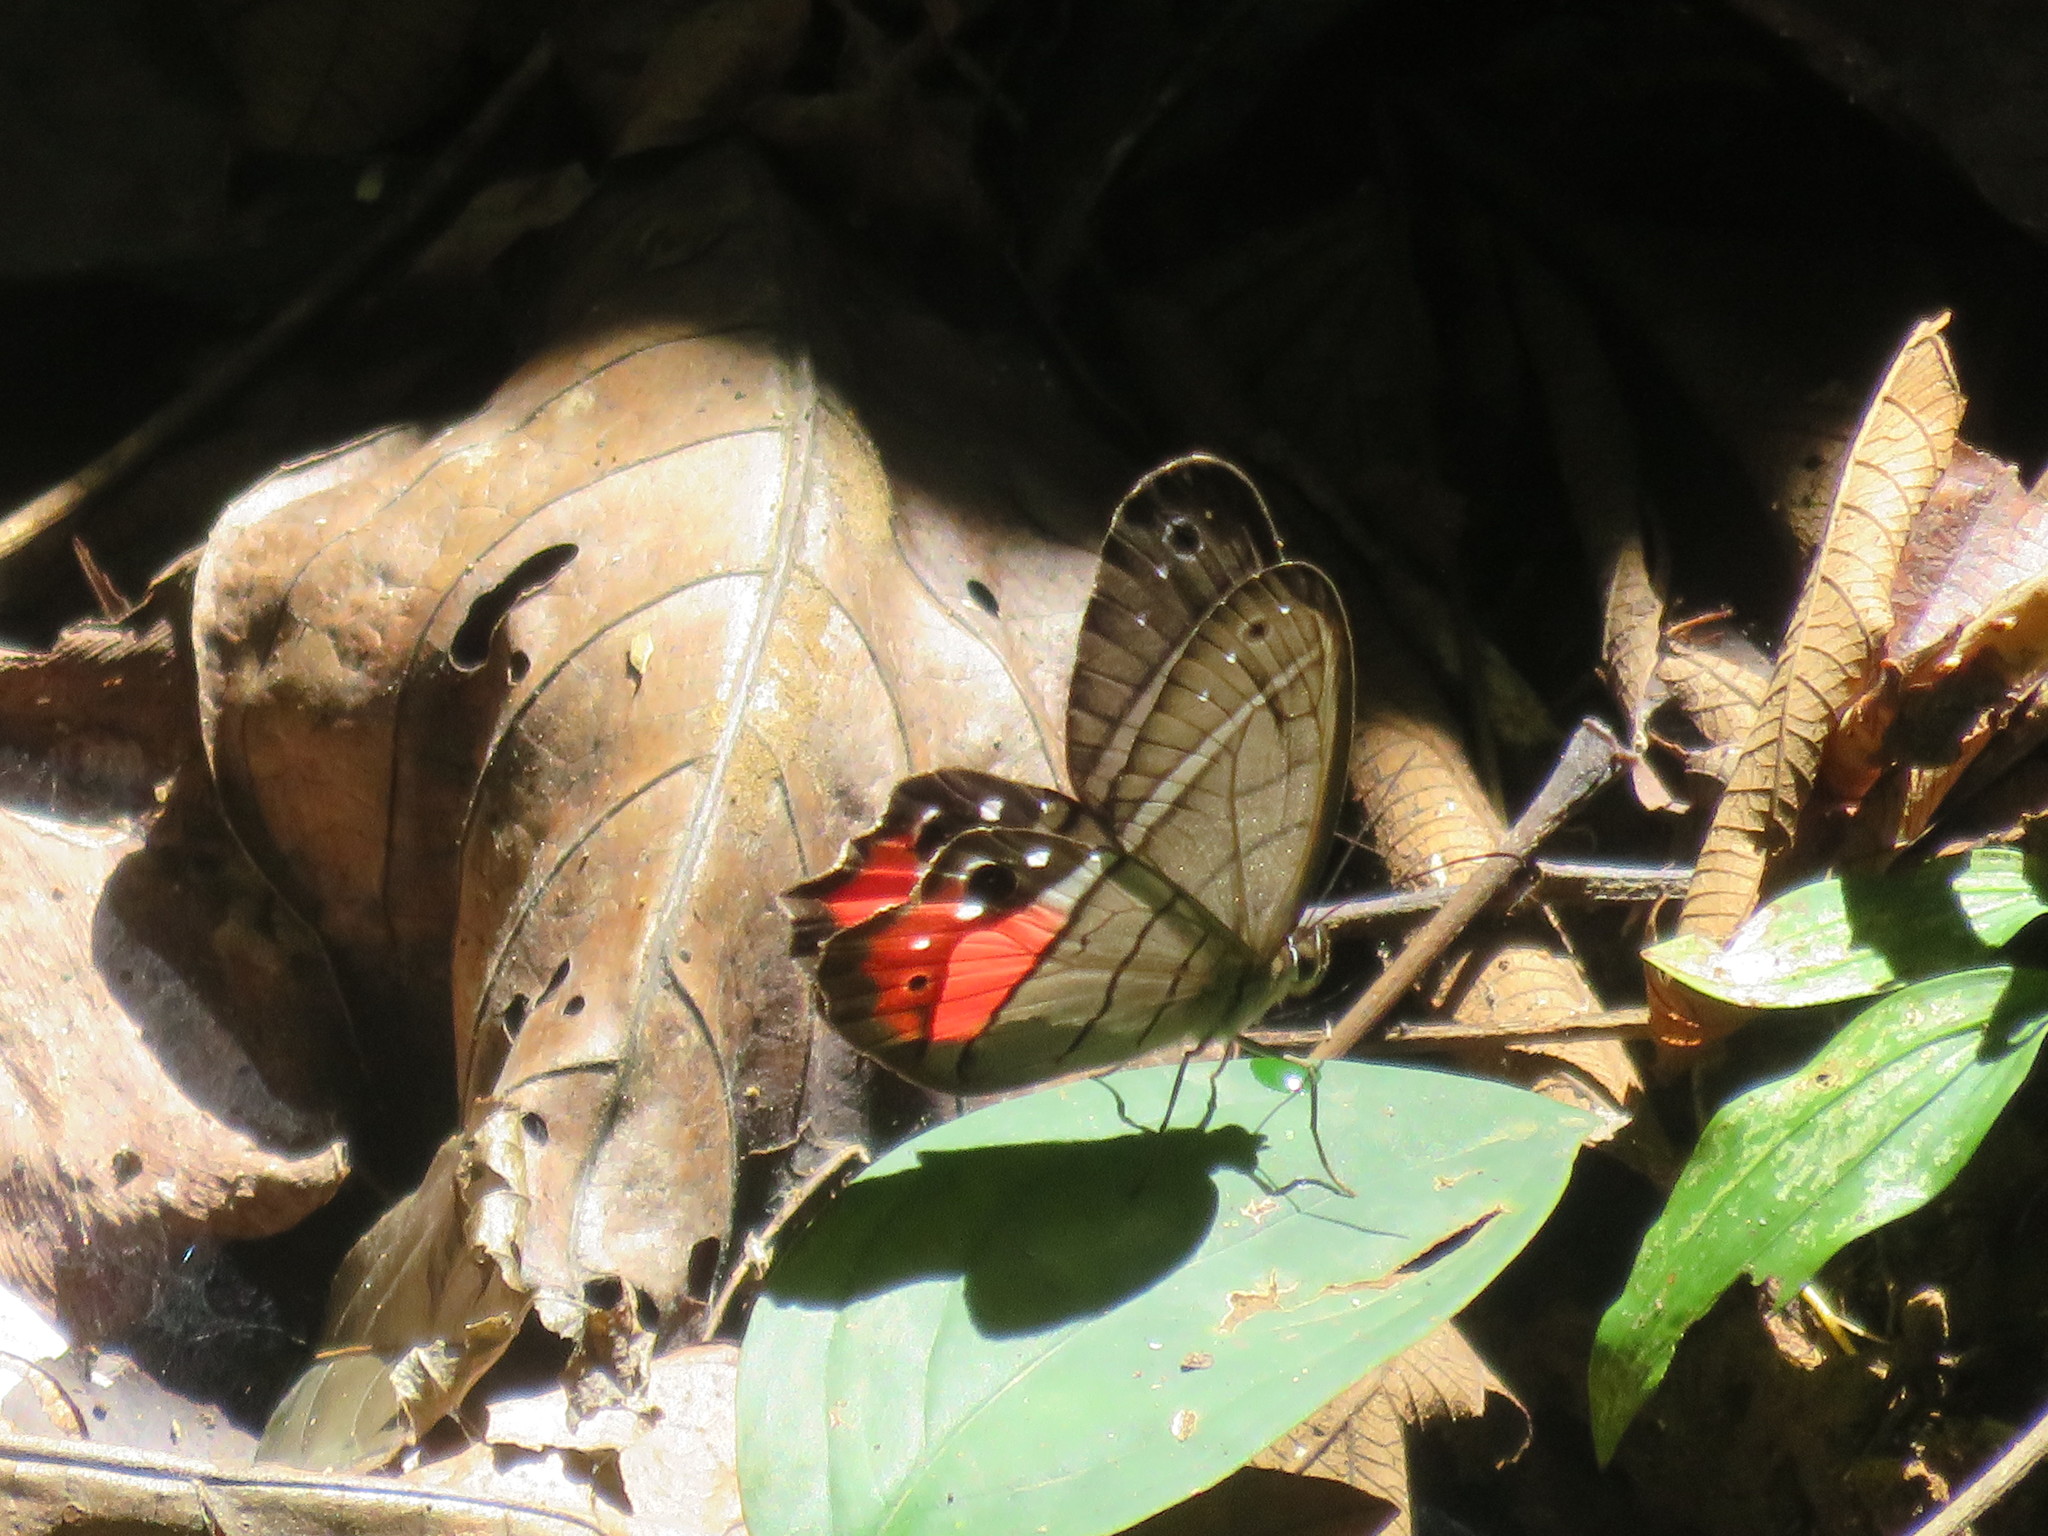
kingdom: Animalia
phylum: Arthropoda
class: Insecta
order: Lepidoptera
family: Nymphalidae
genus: Pierella
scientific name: Pierella helvina
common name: Red-washed satyr
